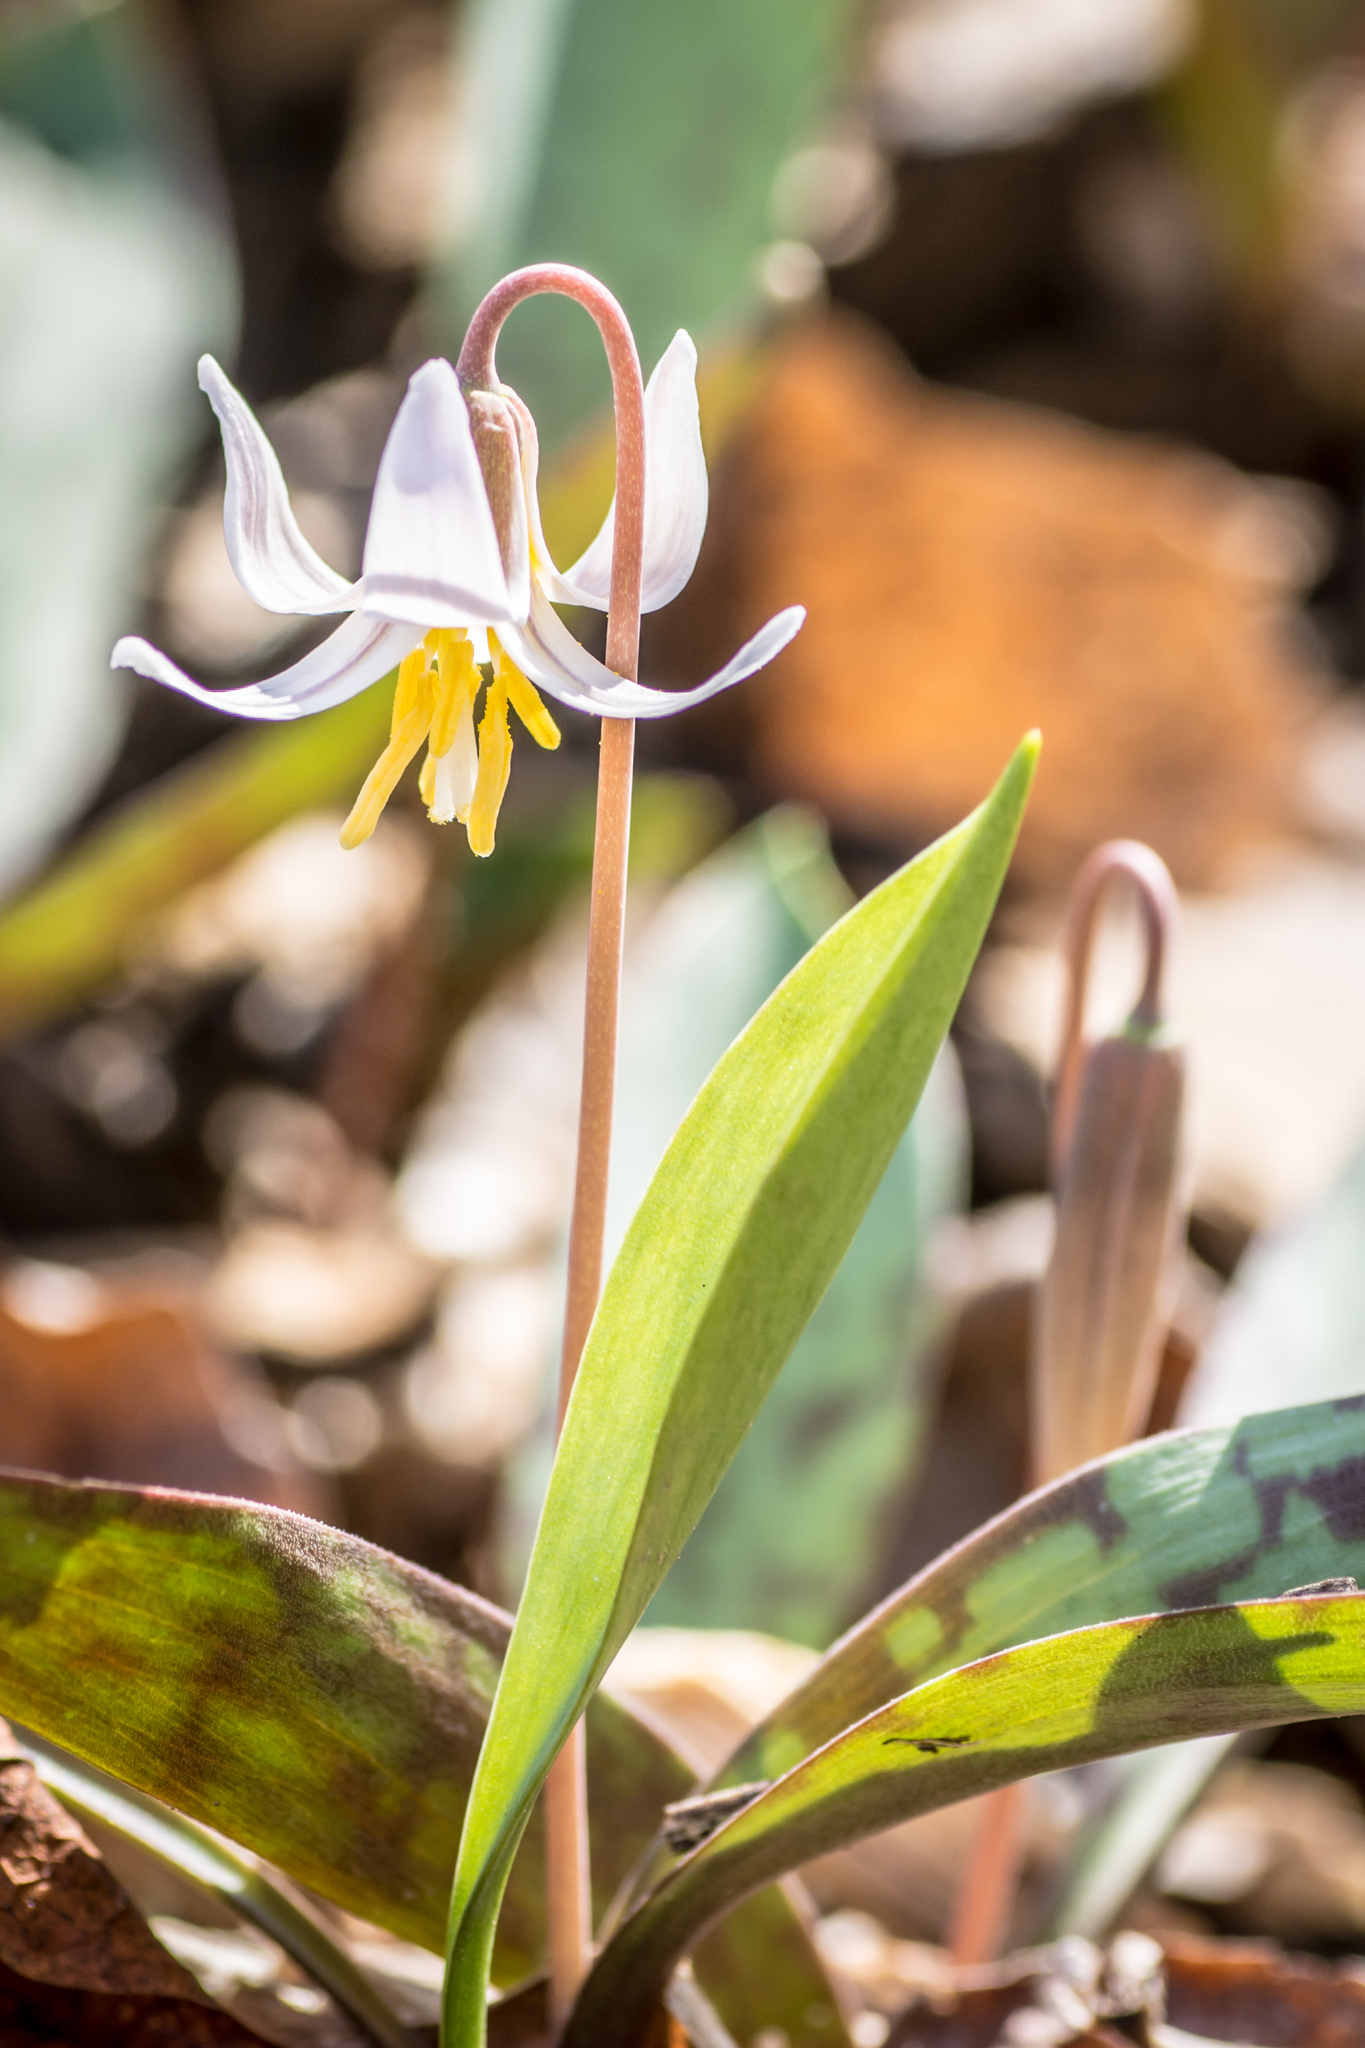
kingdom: Plantae
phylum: Tracheophyta
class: Liliopsida
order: Liliales
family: Liliaceae
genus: Erythronium
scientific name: Erythronium albidum
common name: White trout-lily
